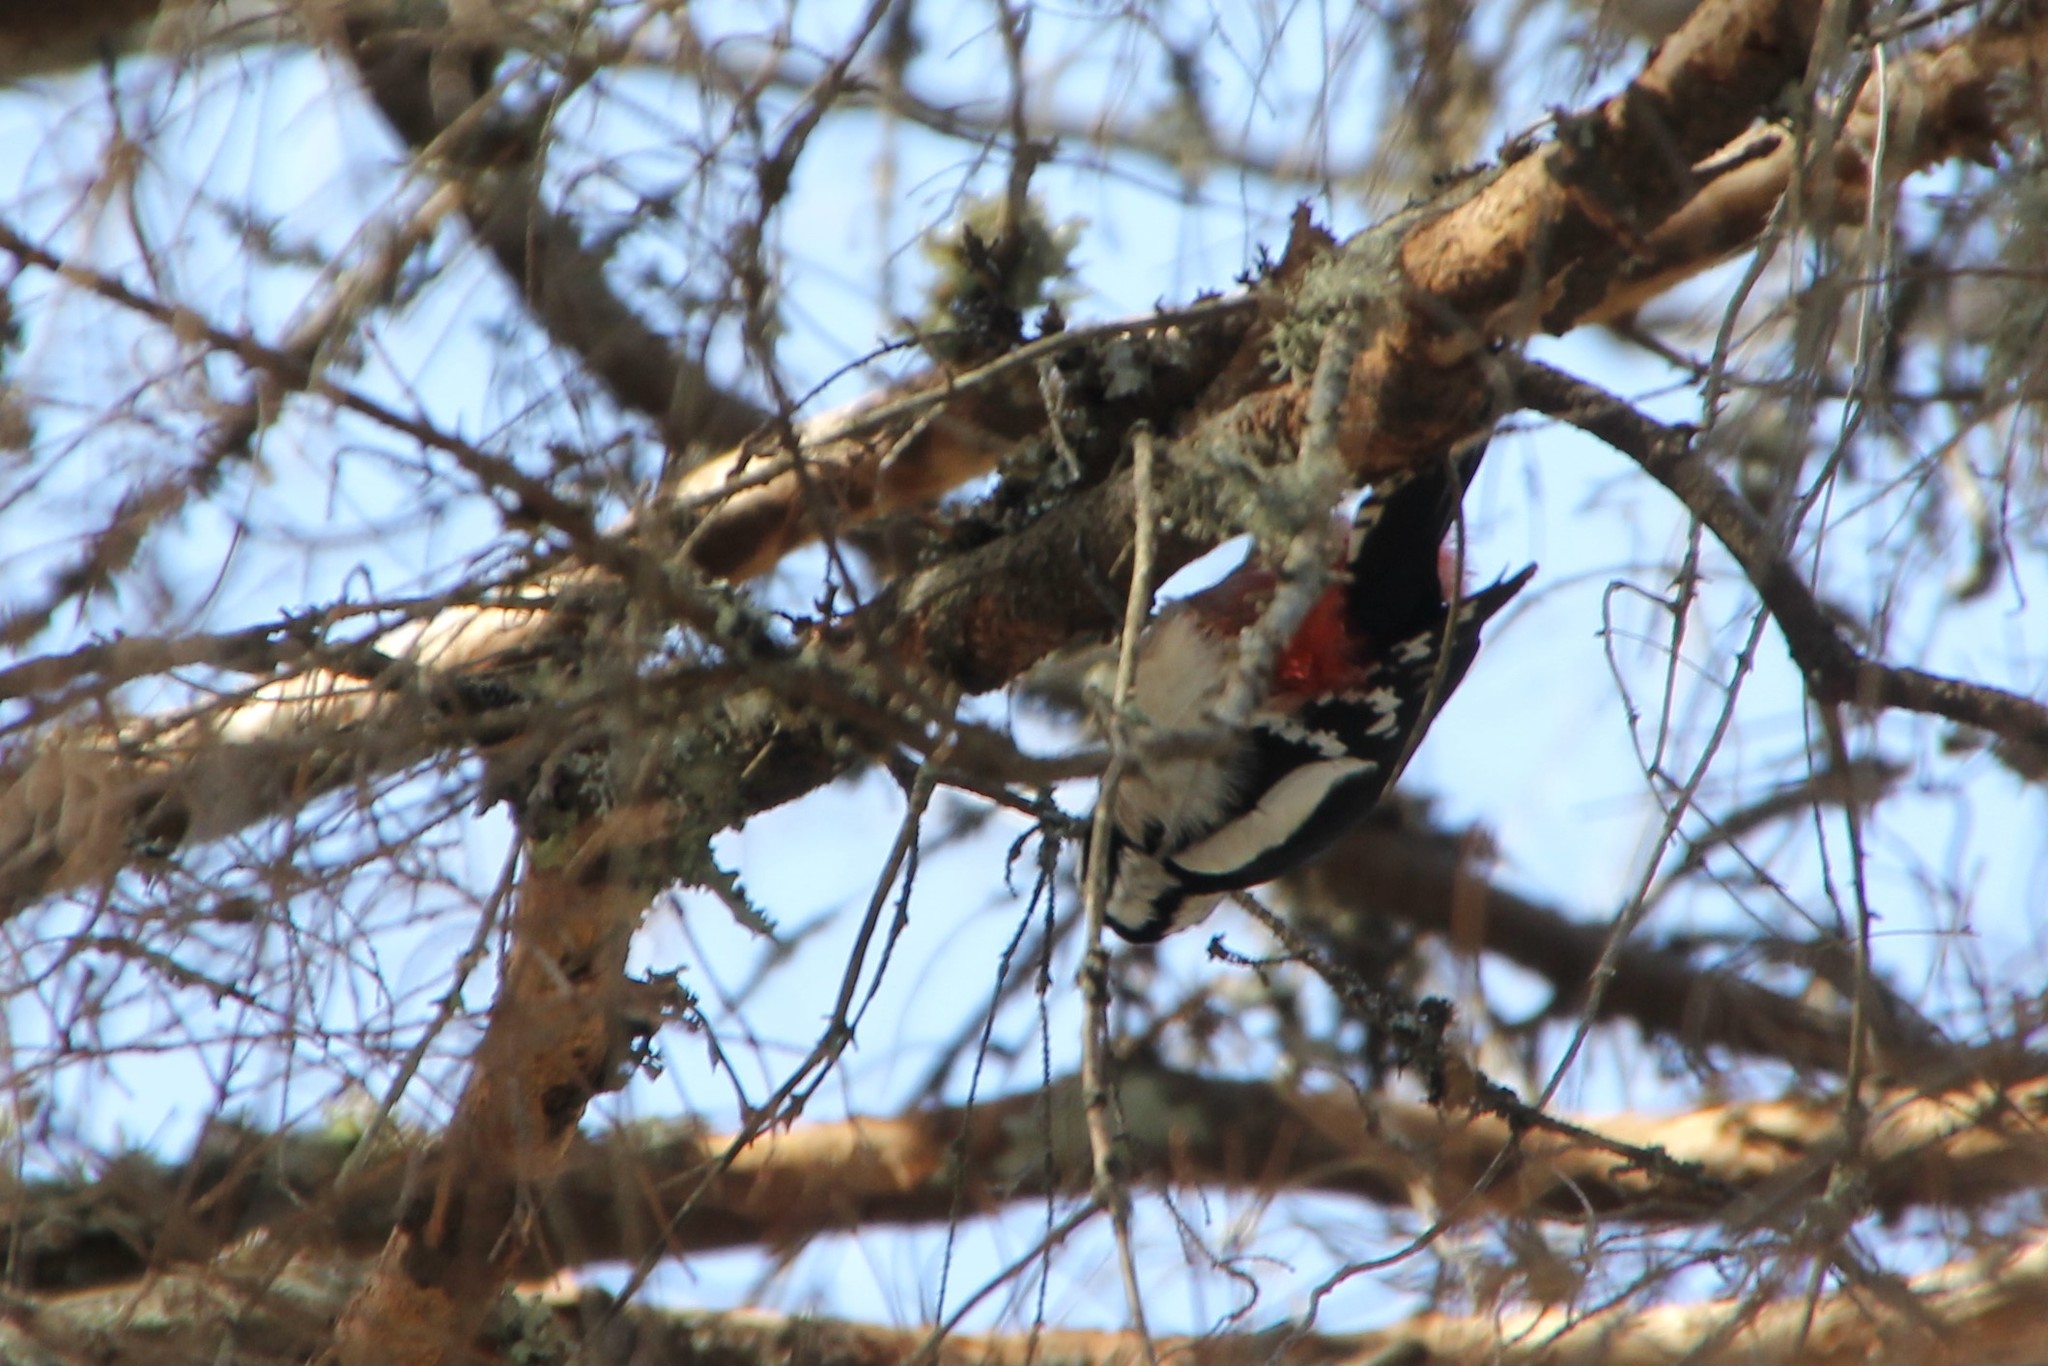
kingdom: Animalia
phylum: Chordata
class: Aves
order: Piciformes
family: Picidae
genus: Dendrocopos
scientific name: Dendrocopos major
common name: Great spotted woodpecker
